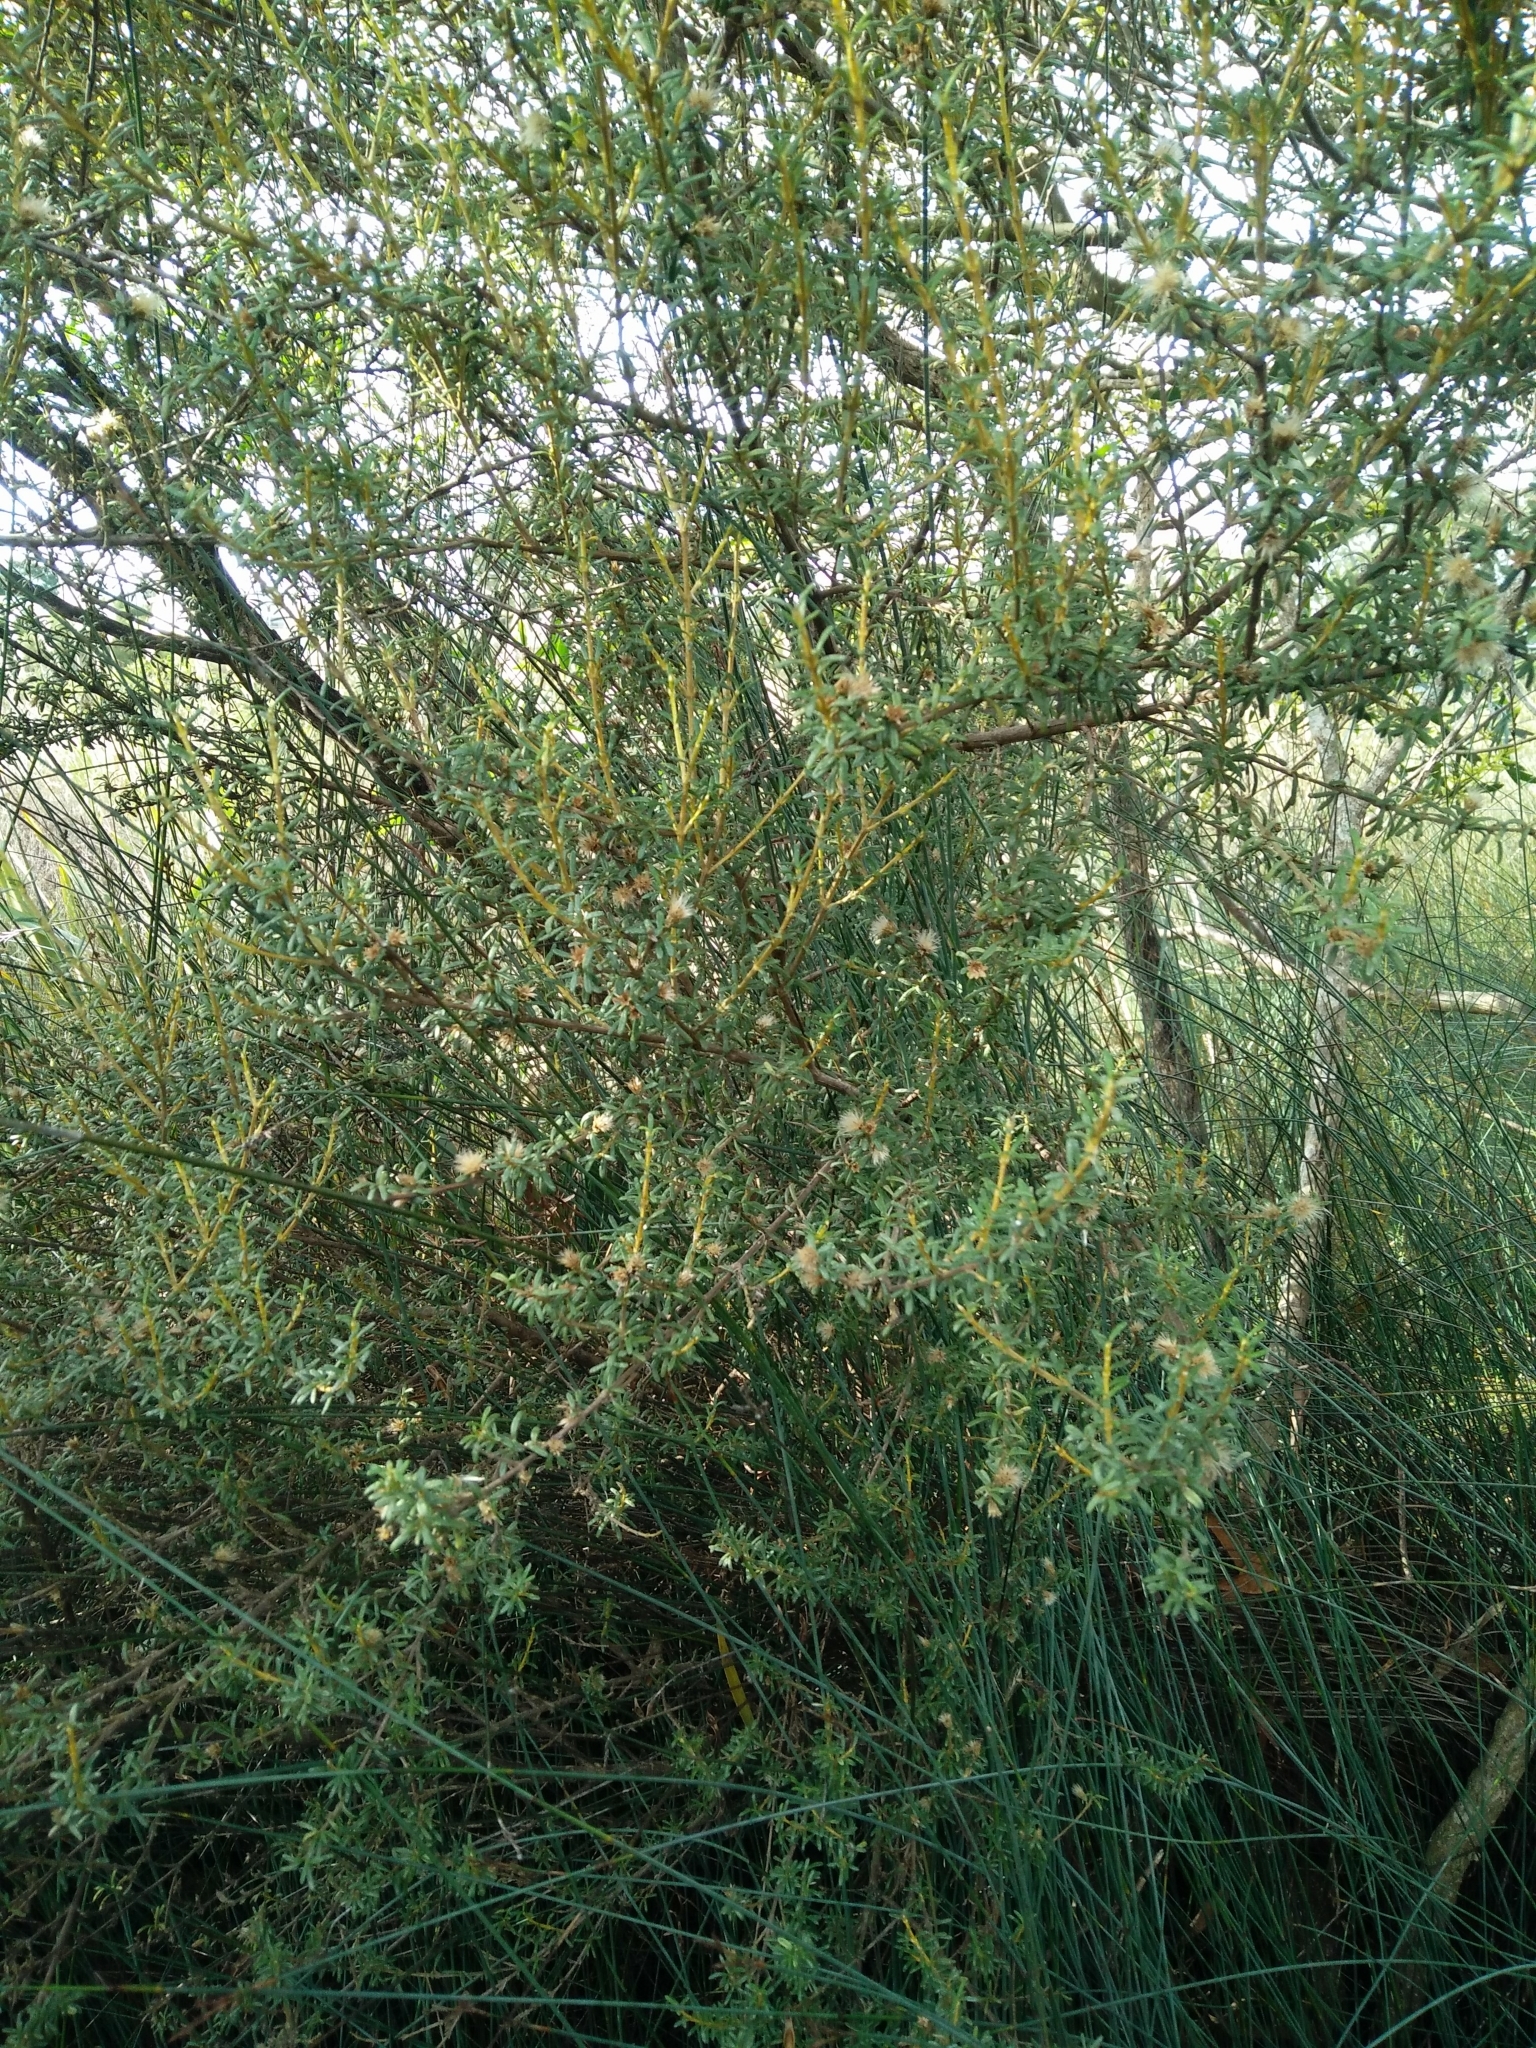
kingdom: Plantae
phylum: Tracheophyta
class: Magnoliopsida
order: Asterales
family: Asteraceae
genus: Olearia
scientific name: Olearia solandri
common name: Coastal daisybush
